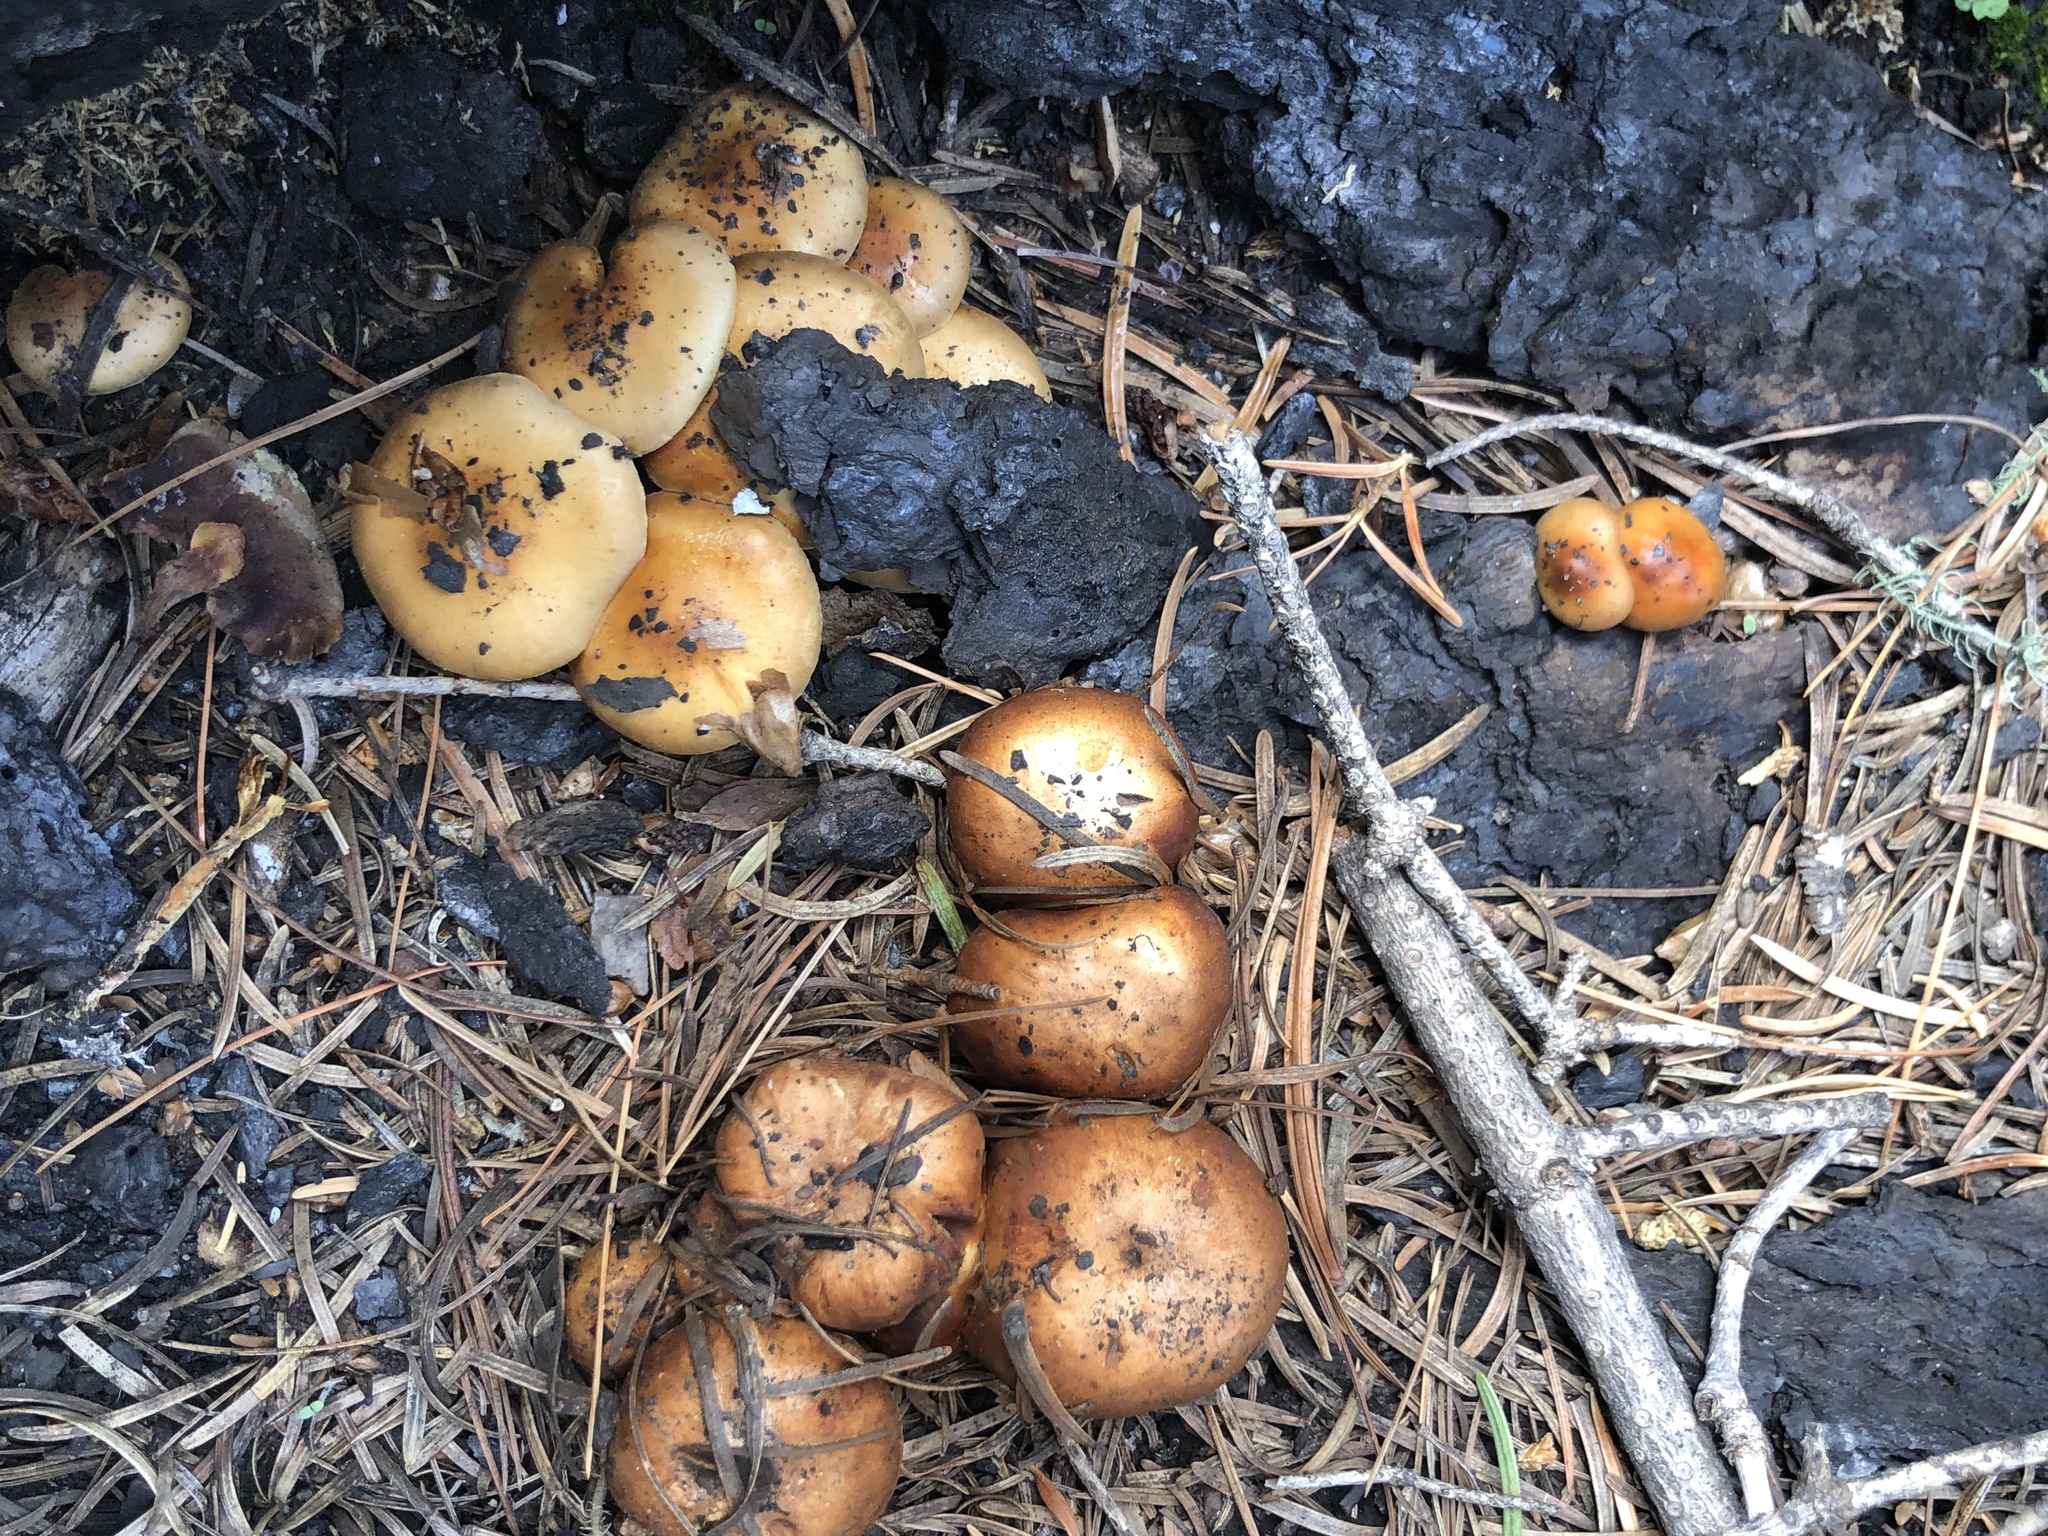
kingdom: Fungi
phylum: Basidiomycota
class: Agaricomycetes
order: Agaricales
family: Strophariaceae
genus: Pholiota
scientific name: Pholiota molesta
